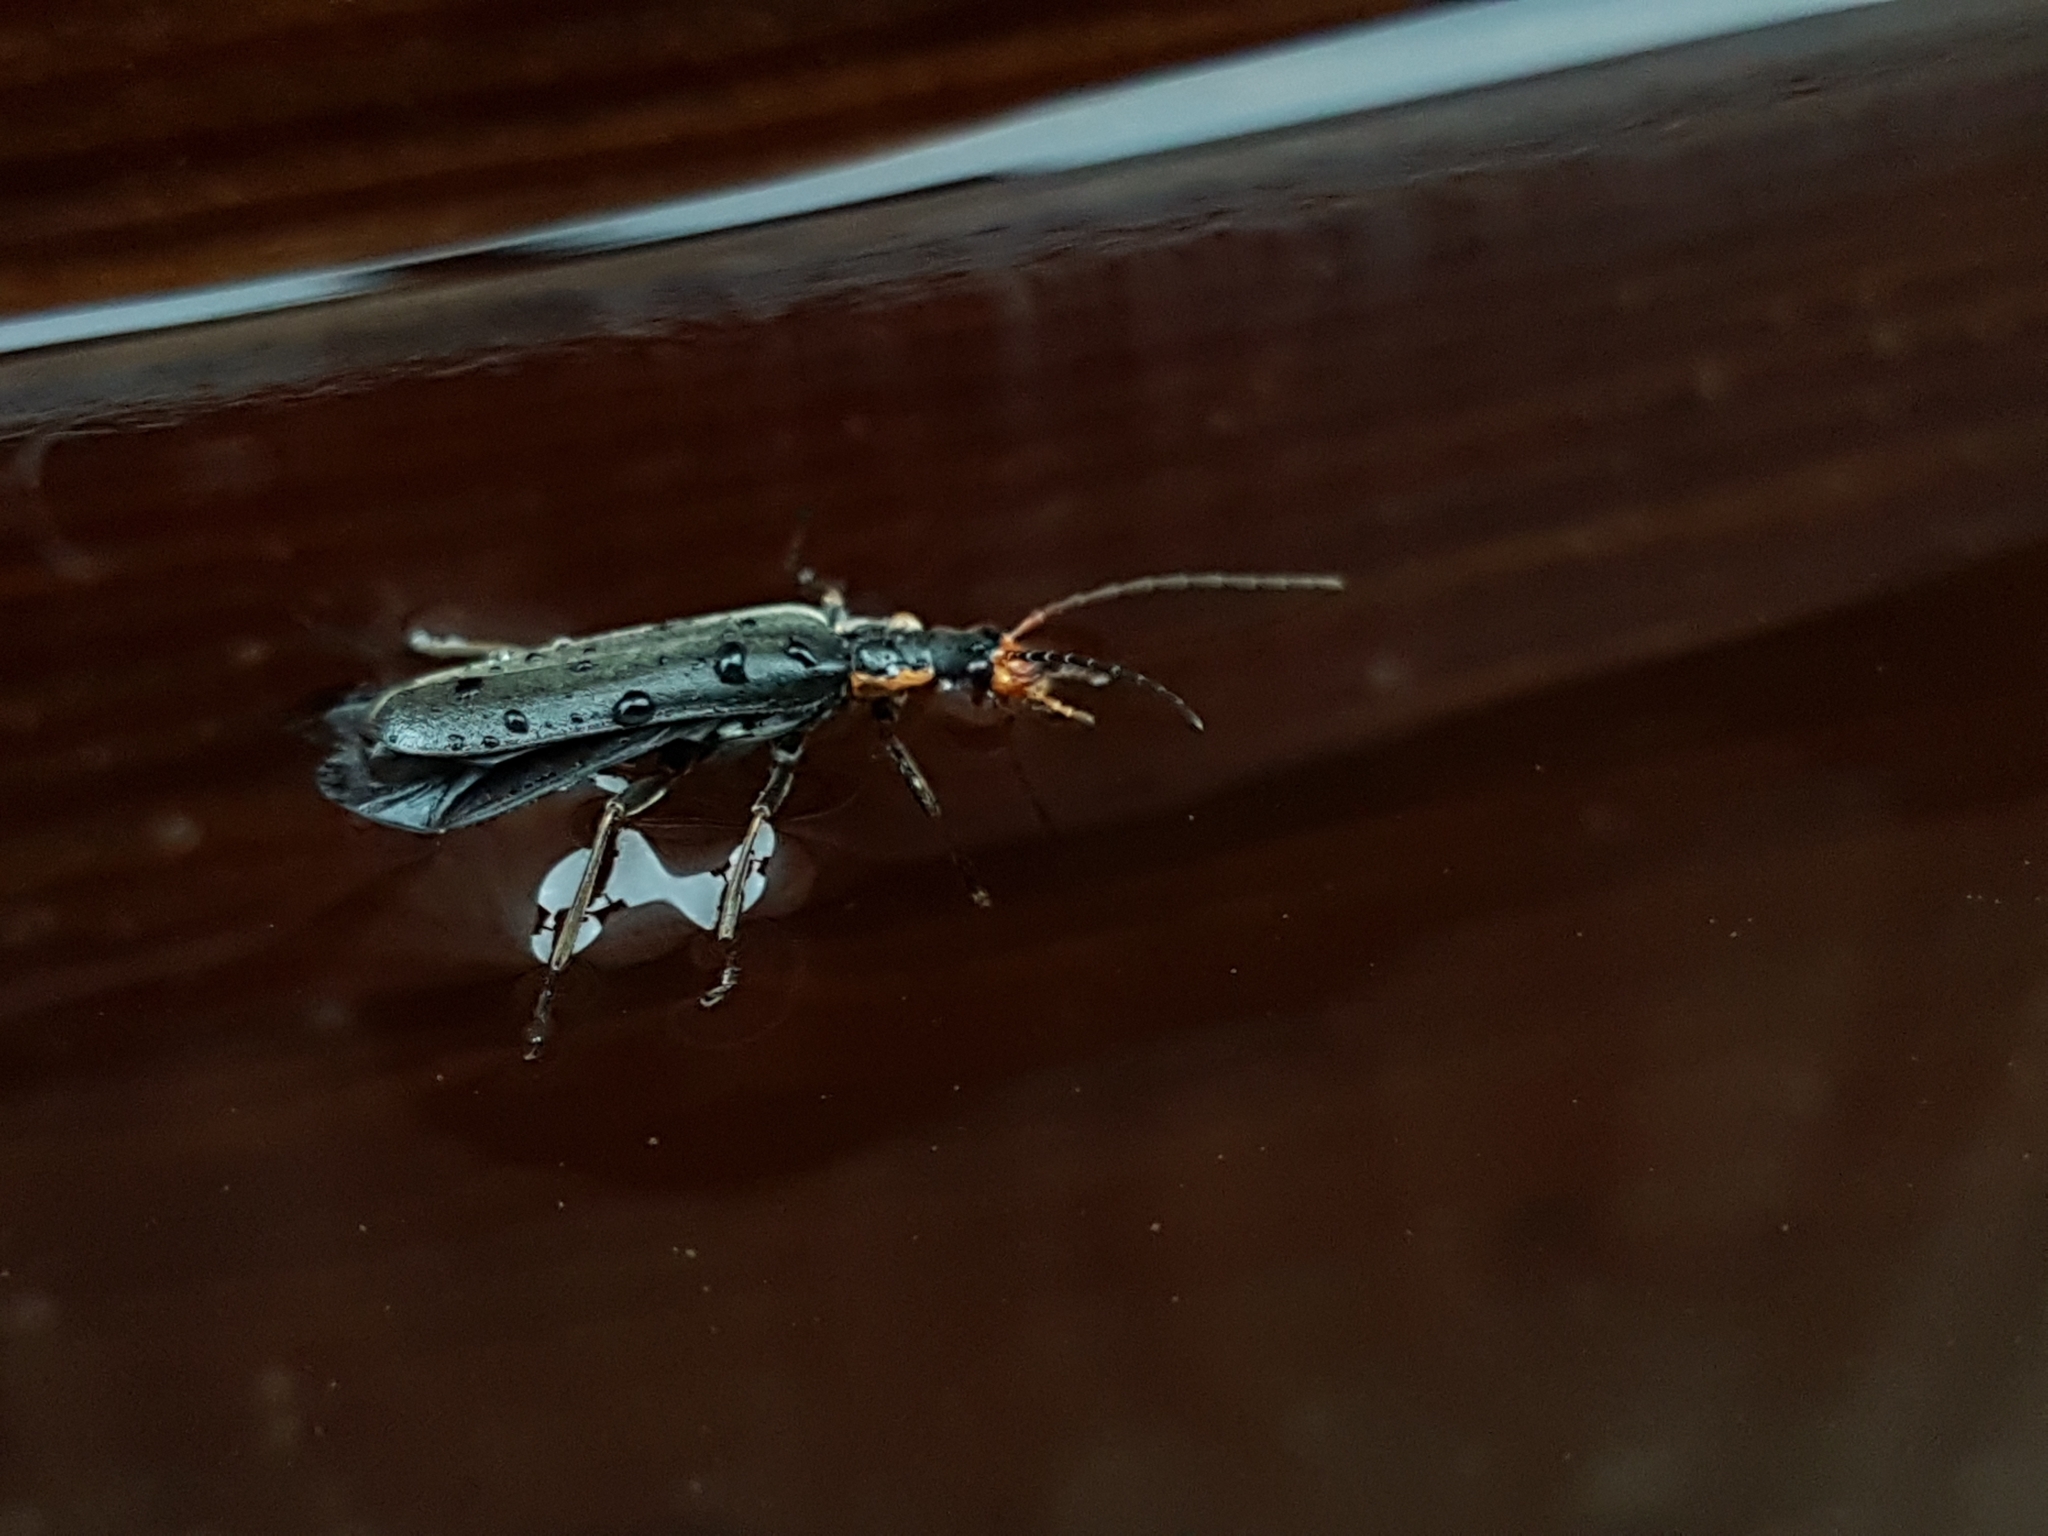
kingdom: Animalia
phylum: Arthropoda
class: Insecta
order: Coleoptera
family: Cantharidae
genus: Podabrus
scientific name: Podabrus alpinus
